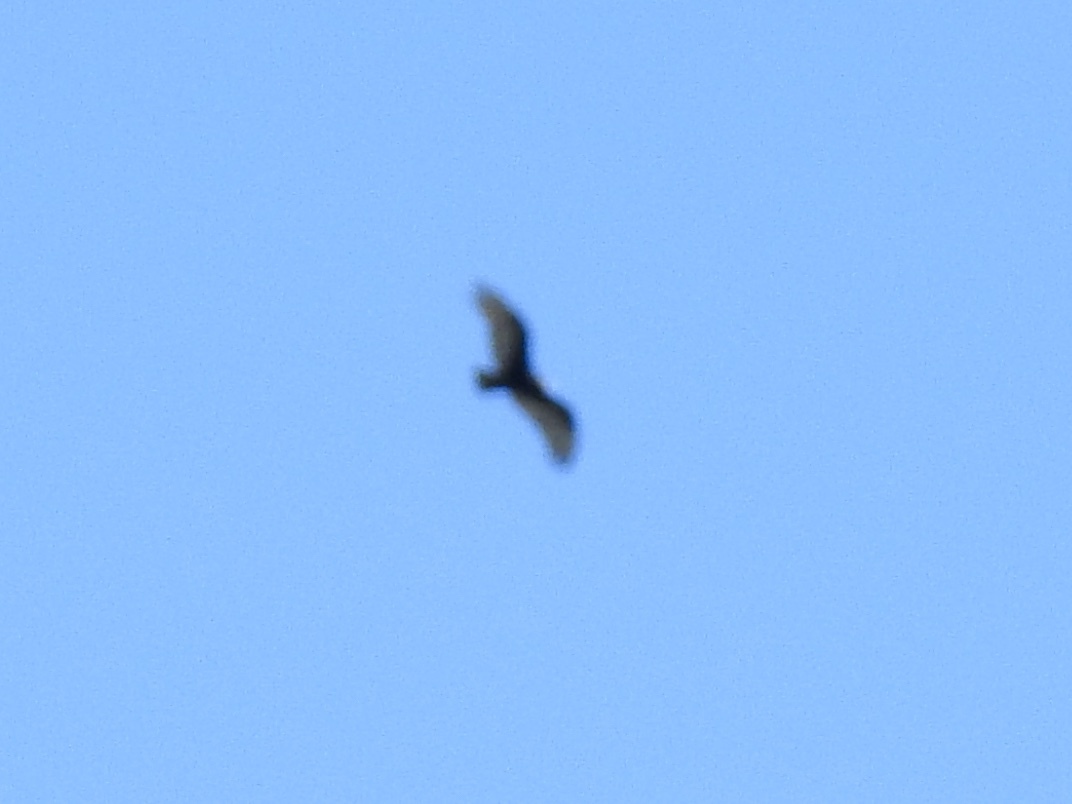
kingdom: Animalia
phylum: Chordata
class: Aves
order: Accipitriformes
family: Cathartidae
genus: Cathartes
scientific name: Cathartes aura
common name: Turkey vulture
